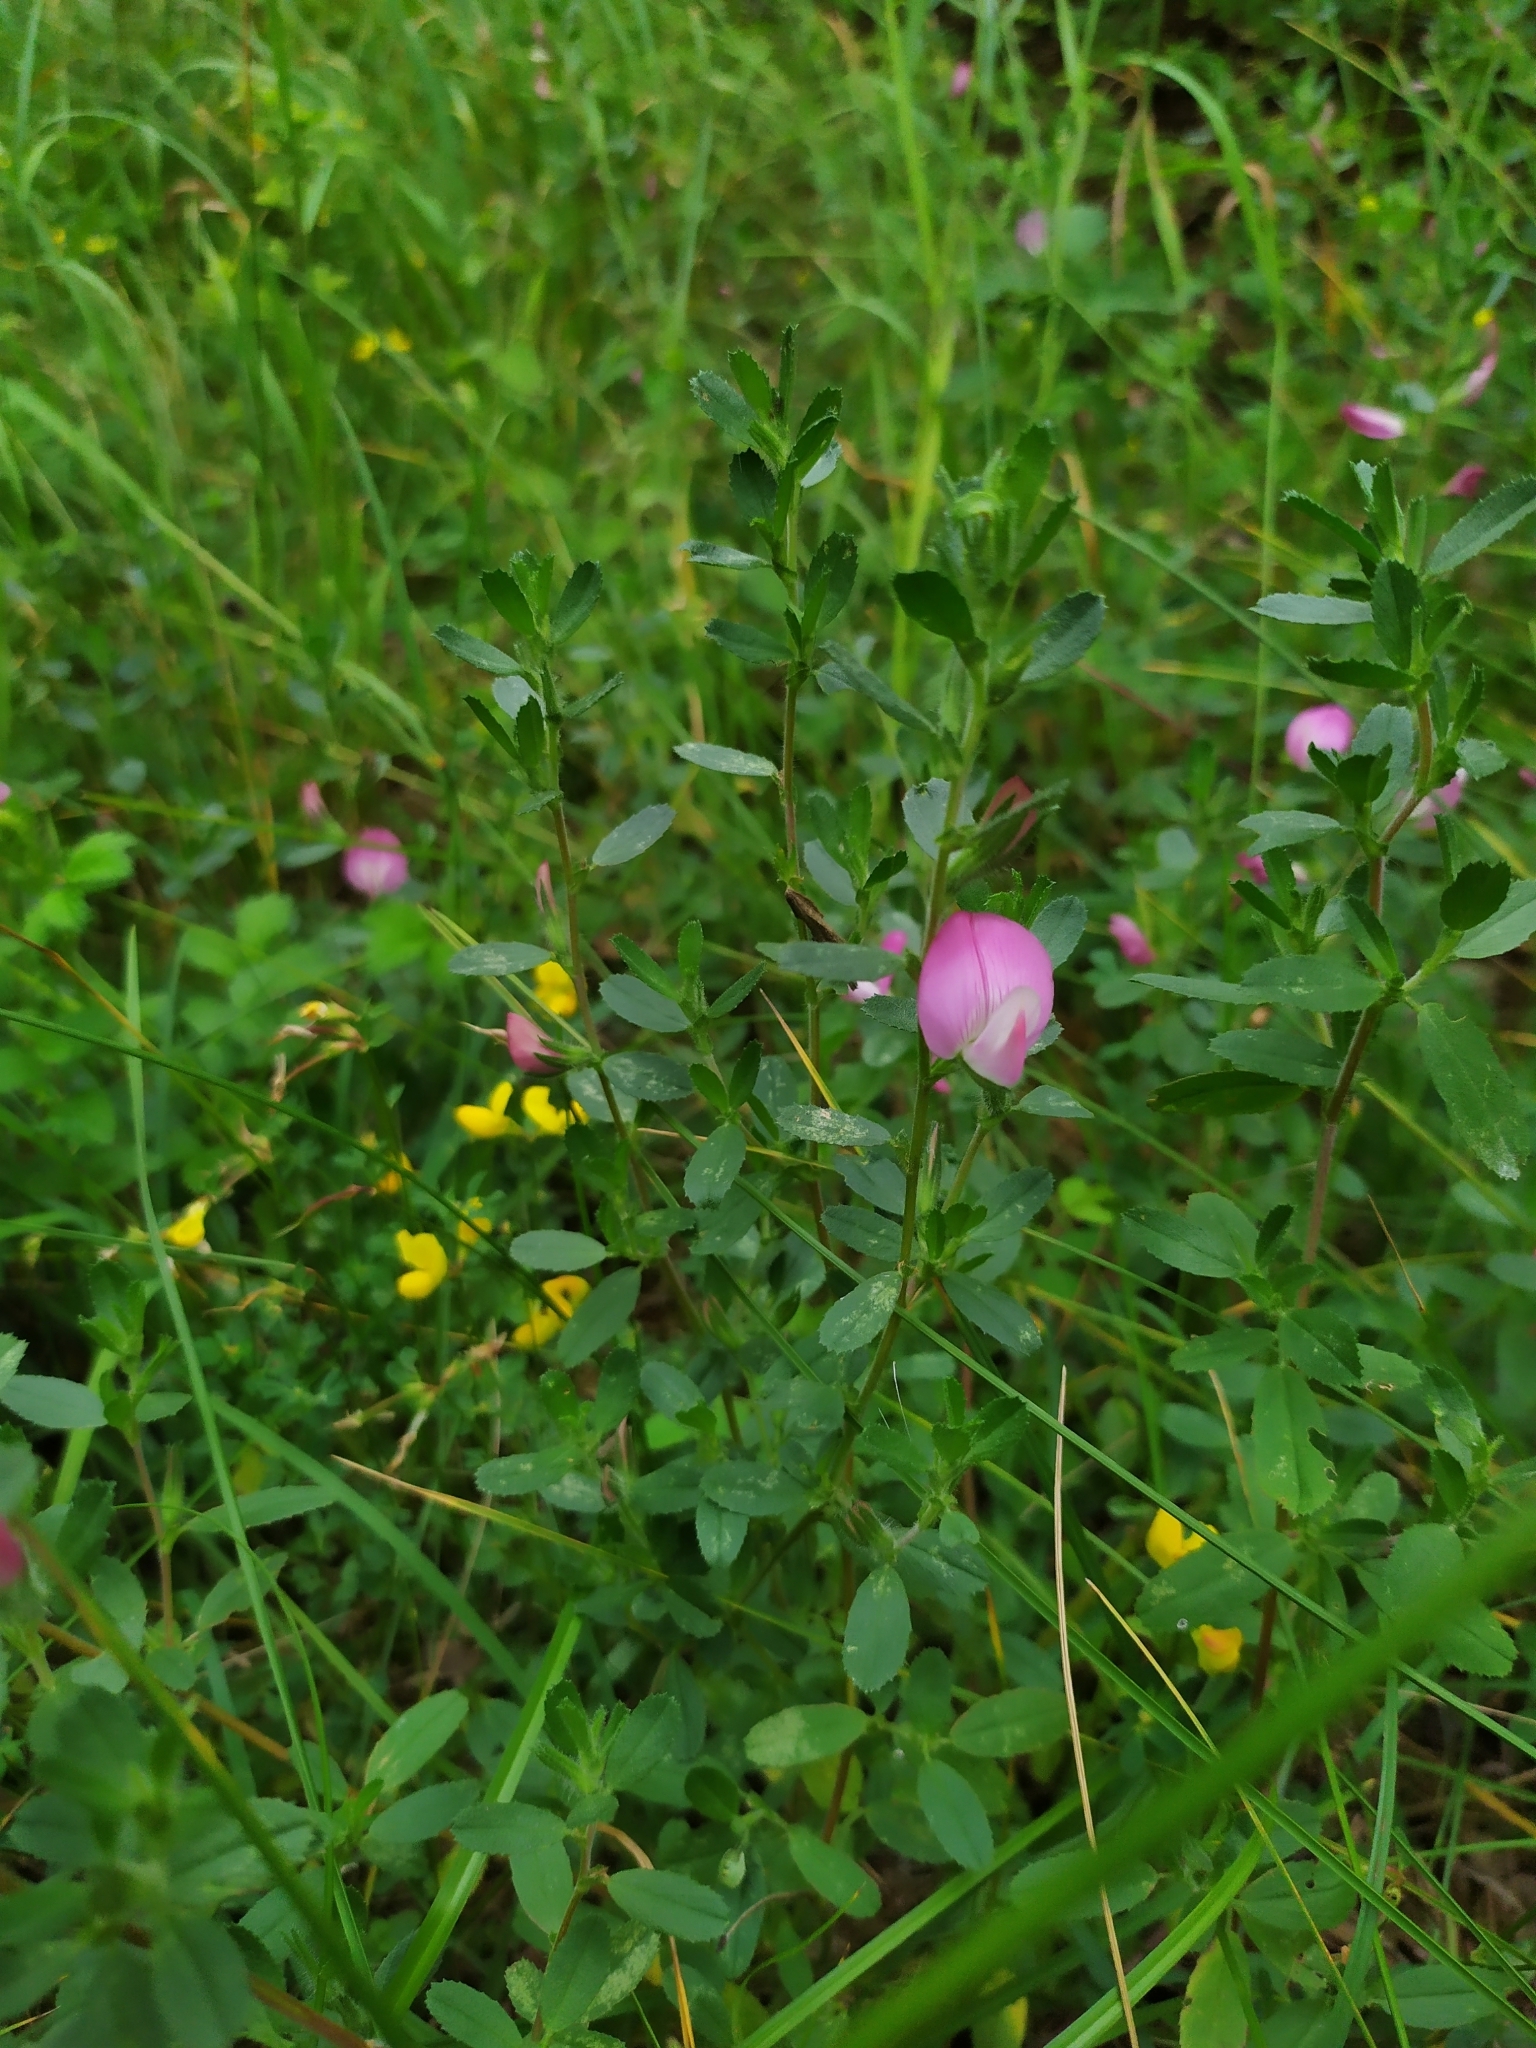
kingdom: Plantae
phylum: Tracheophyta
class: Magnoliopsida
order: Fabales
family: Fabaceae
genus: Ononis
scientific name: Ononis spinosa
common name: Spiny restharrow
